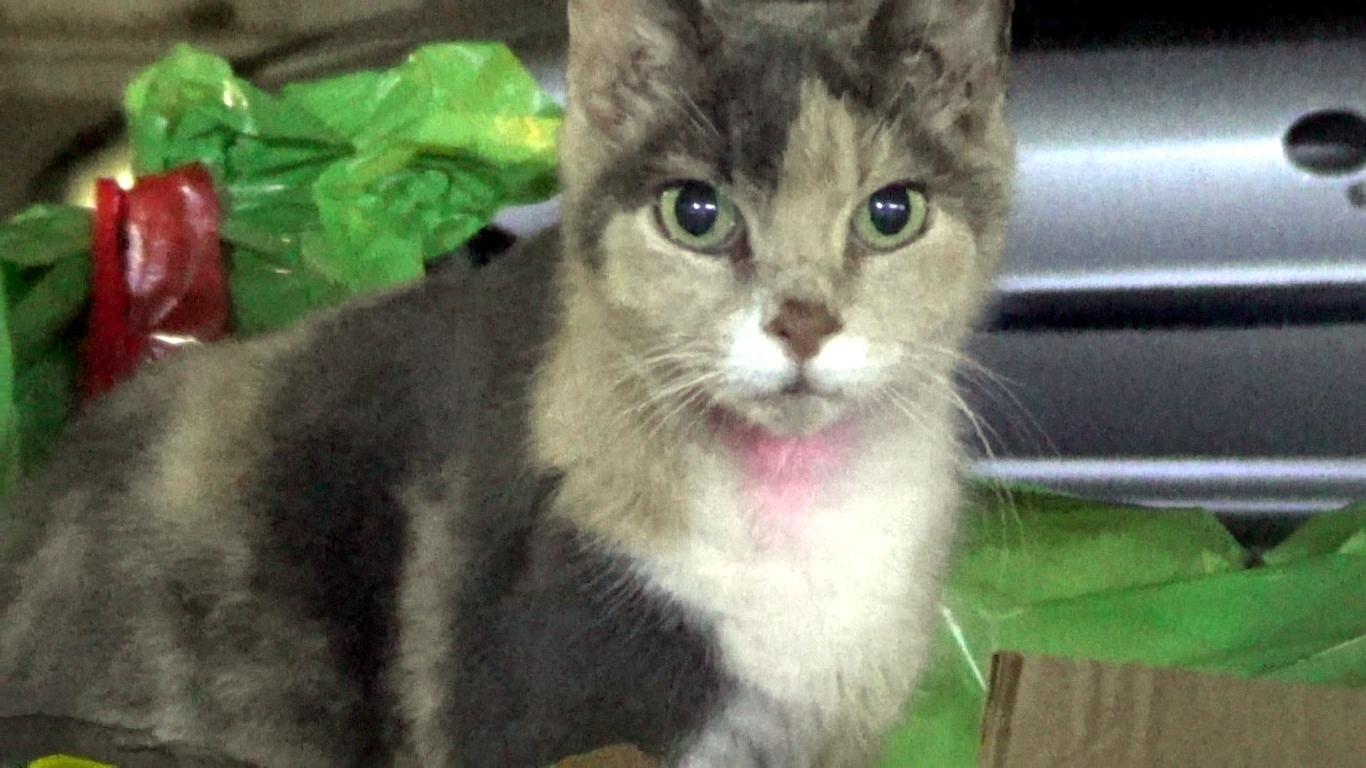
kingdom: Animalia
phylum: Chordata
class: Mammalia
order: Carnivora
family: Felidae
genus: Felis
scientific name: Felis catus
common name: Domestic cat
